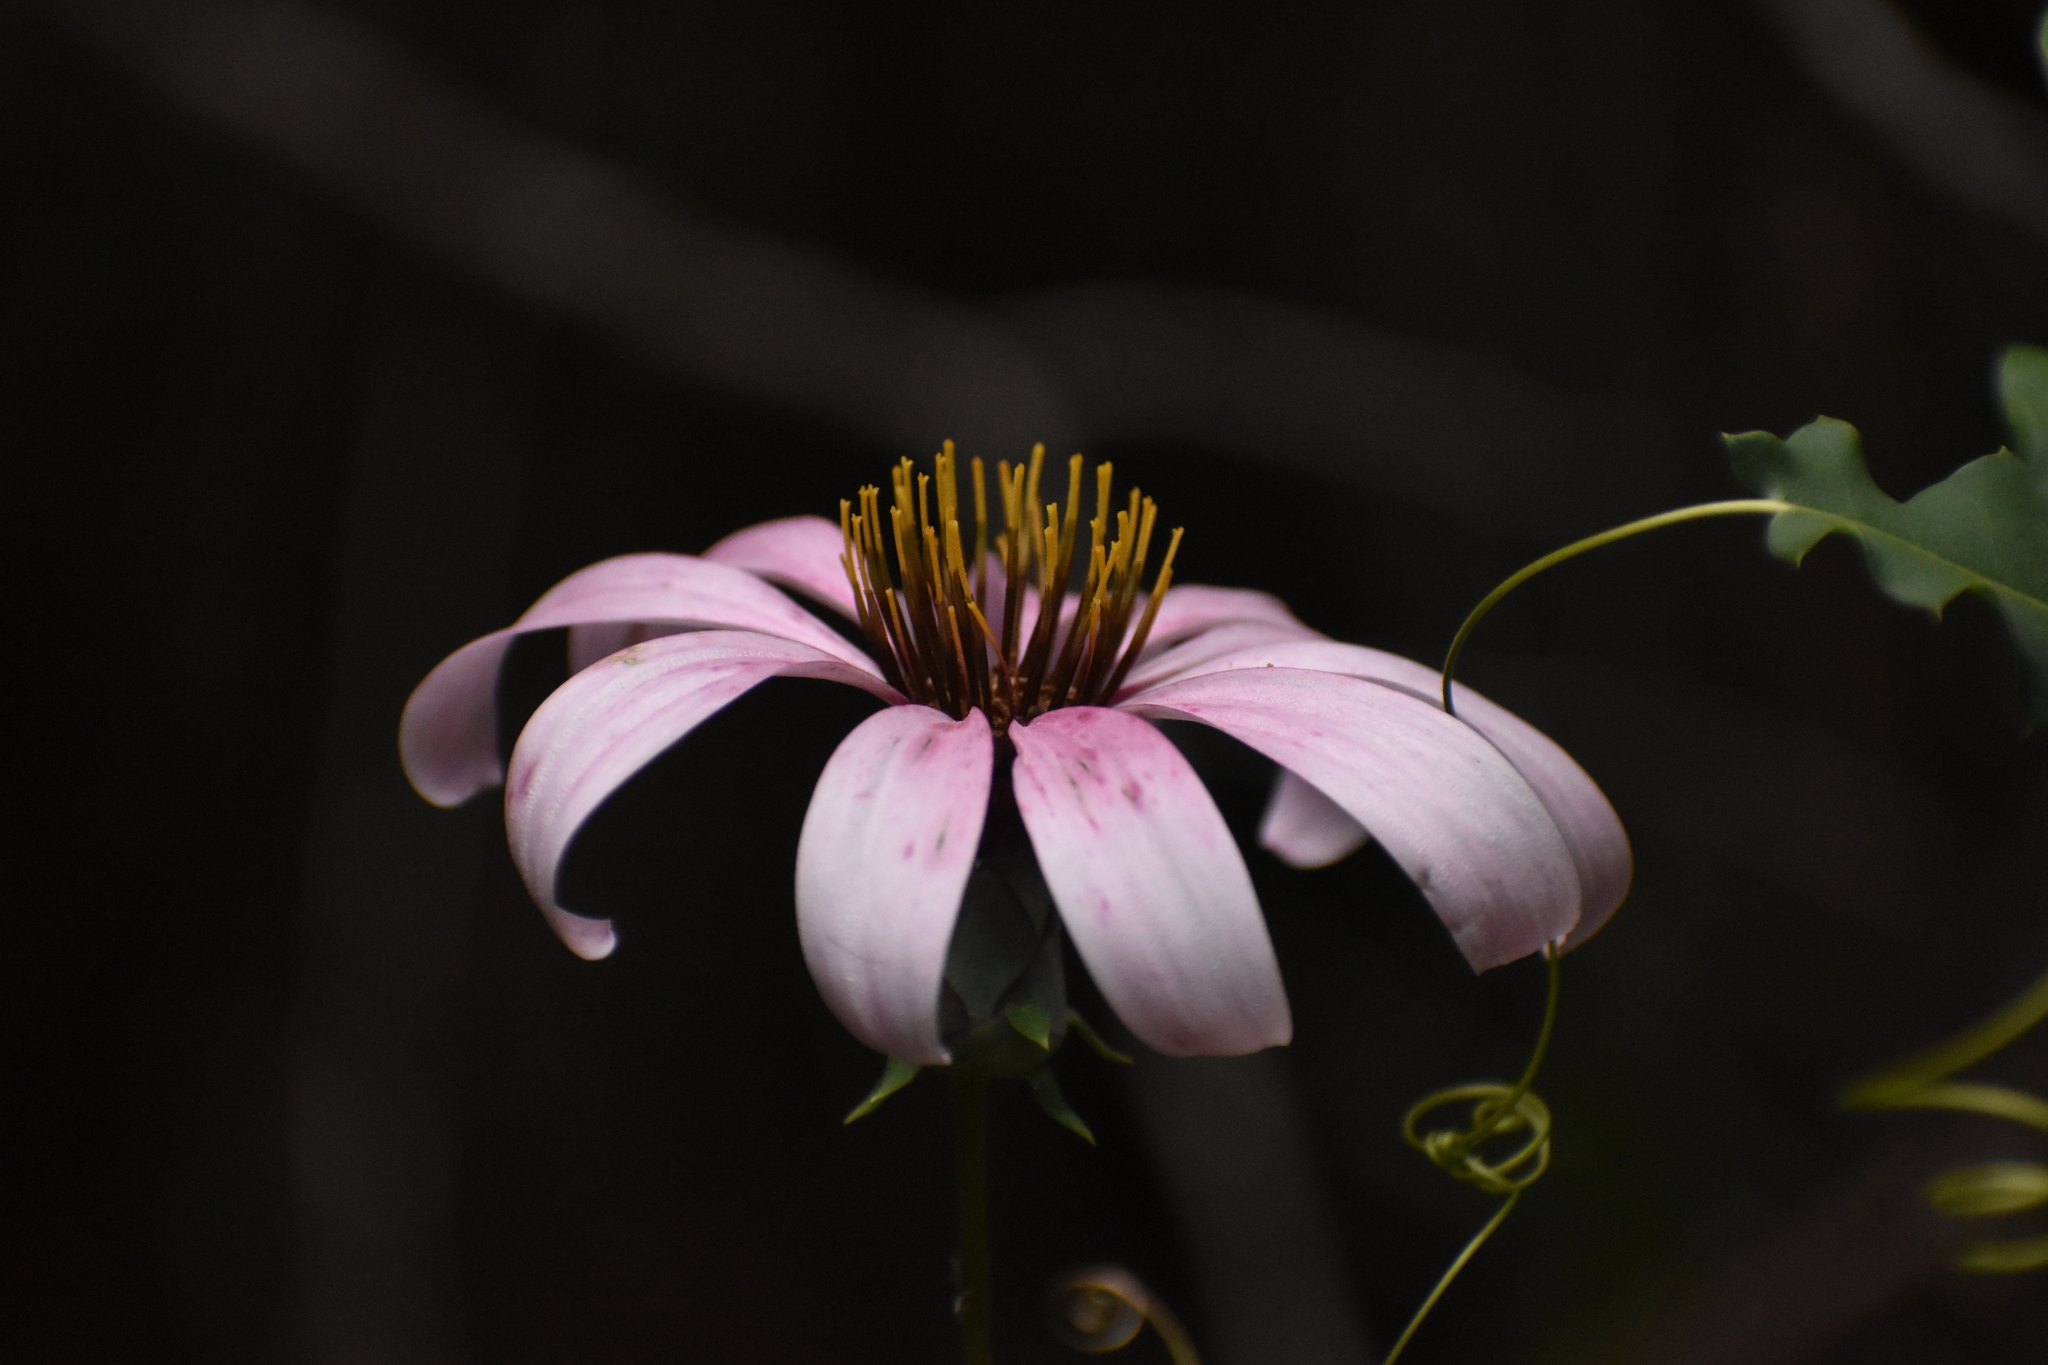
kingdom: Plantae
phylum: Tracheophyta
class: Magnoliopsida
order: Asterales
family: Asteraceae
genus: Mutisia
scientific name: Mutisia spinosa
